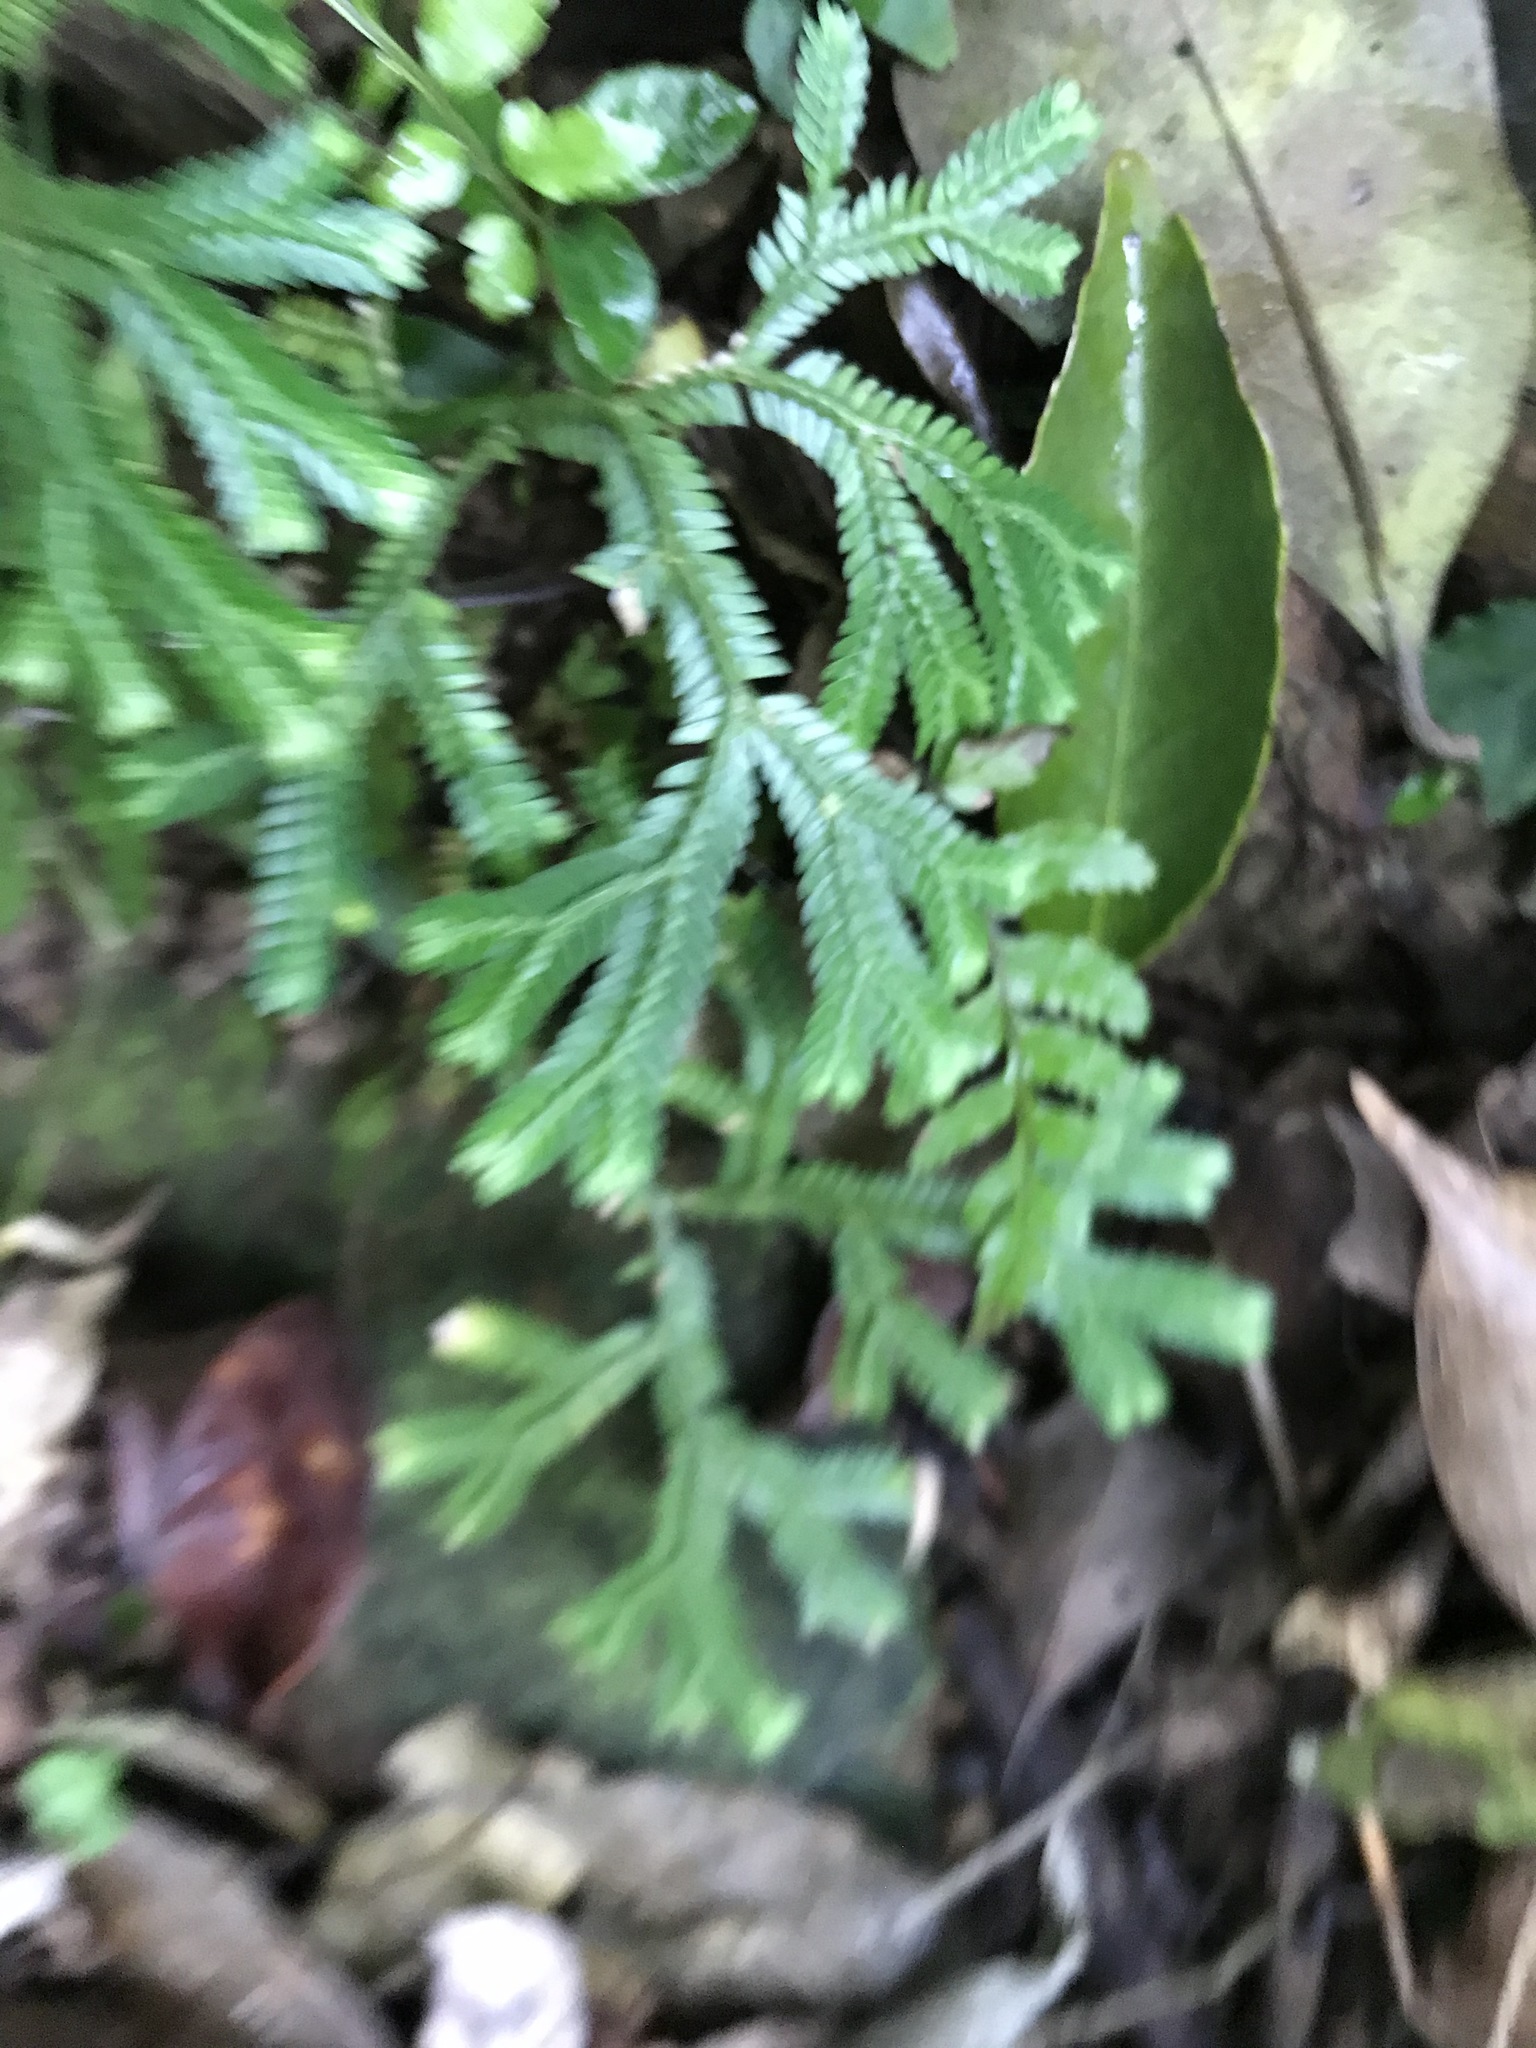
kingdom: Plantae
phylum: Tracheophyta
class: Lycopodiopsida
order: Selaginellales
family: Selaginellaceae
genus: Selaginella
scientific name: Selaginella doederleinii
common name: Greater selaginella
